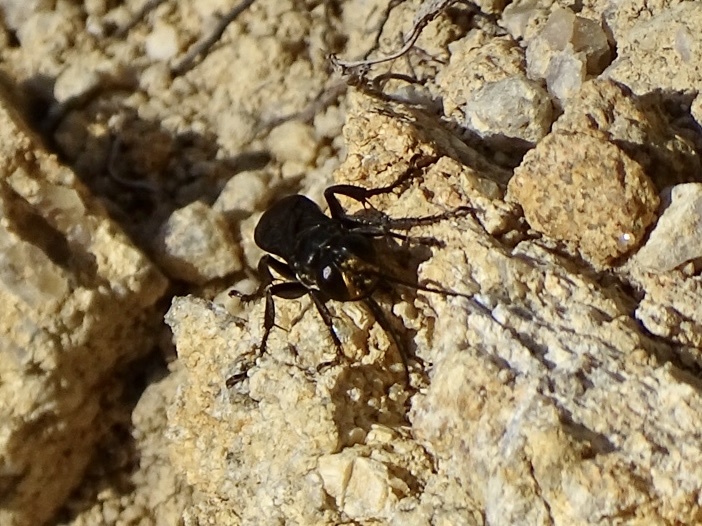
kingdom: Animalia
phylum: Arthropoda
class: Insecta
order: Hymenoptera
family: Crabronidae
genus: Liris
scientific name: Liris anthracinus
